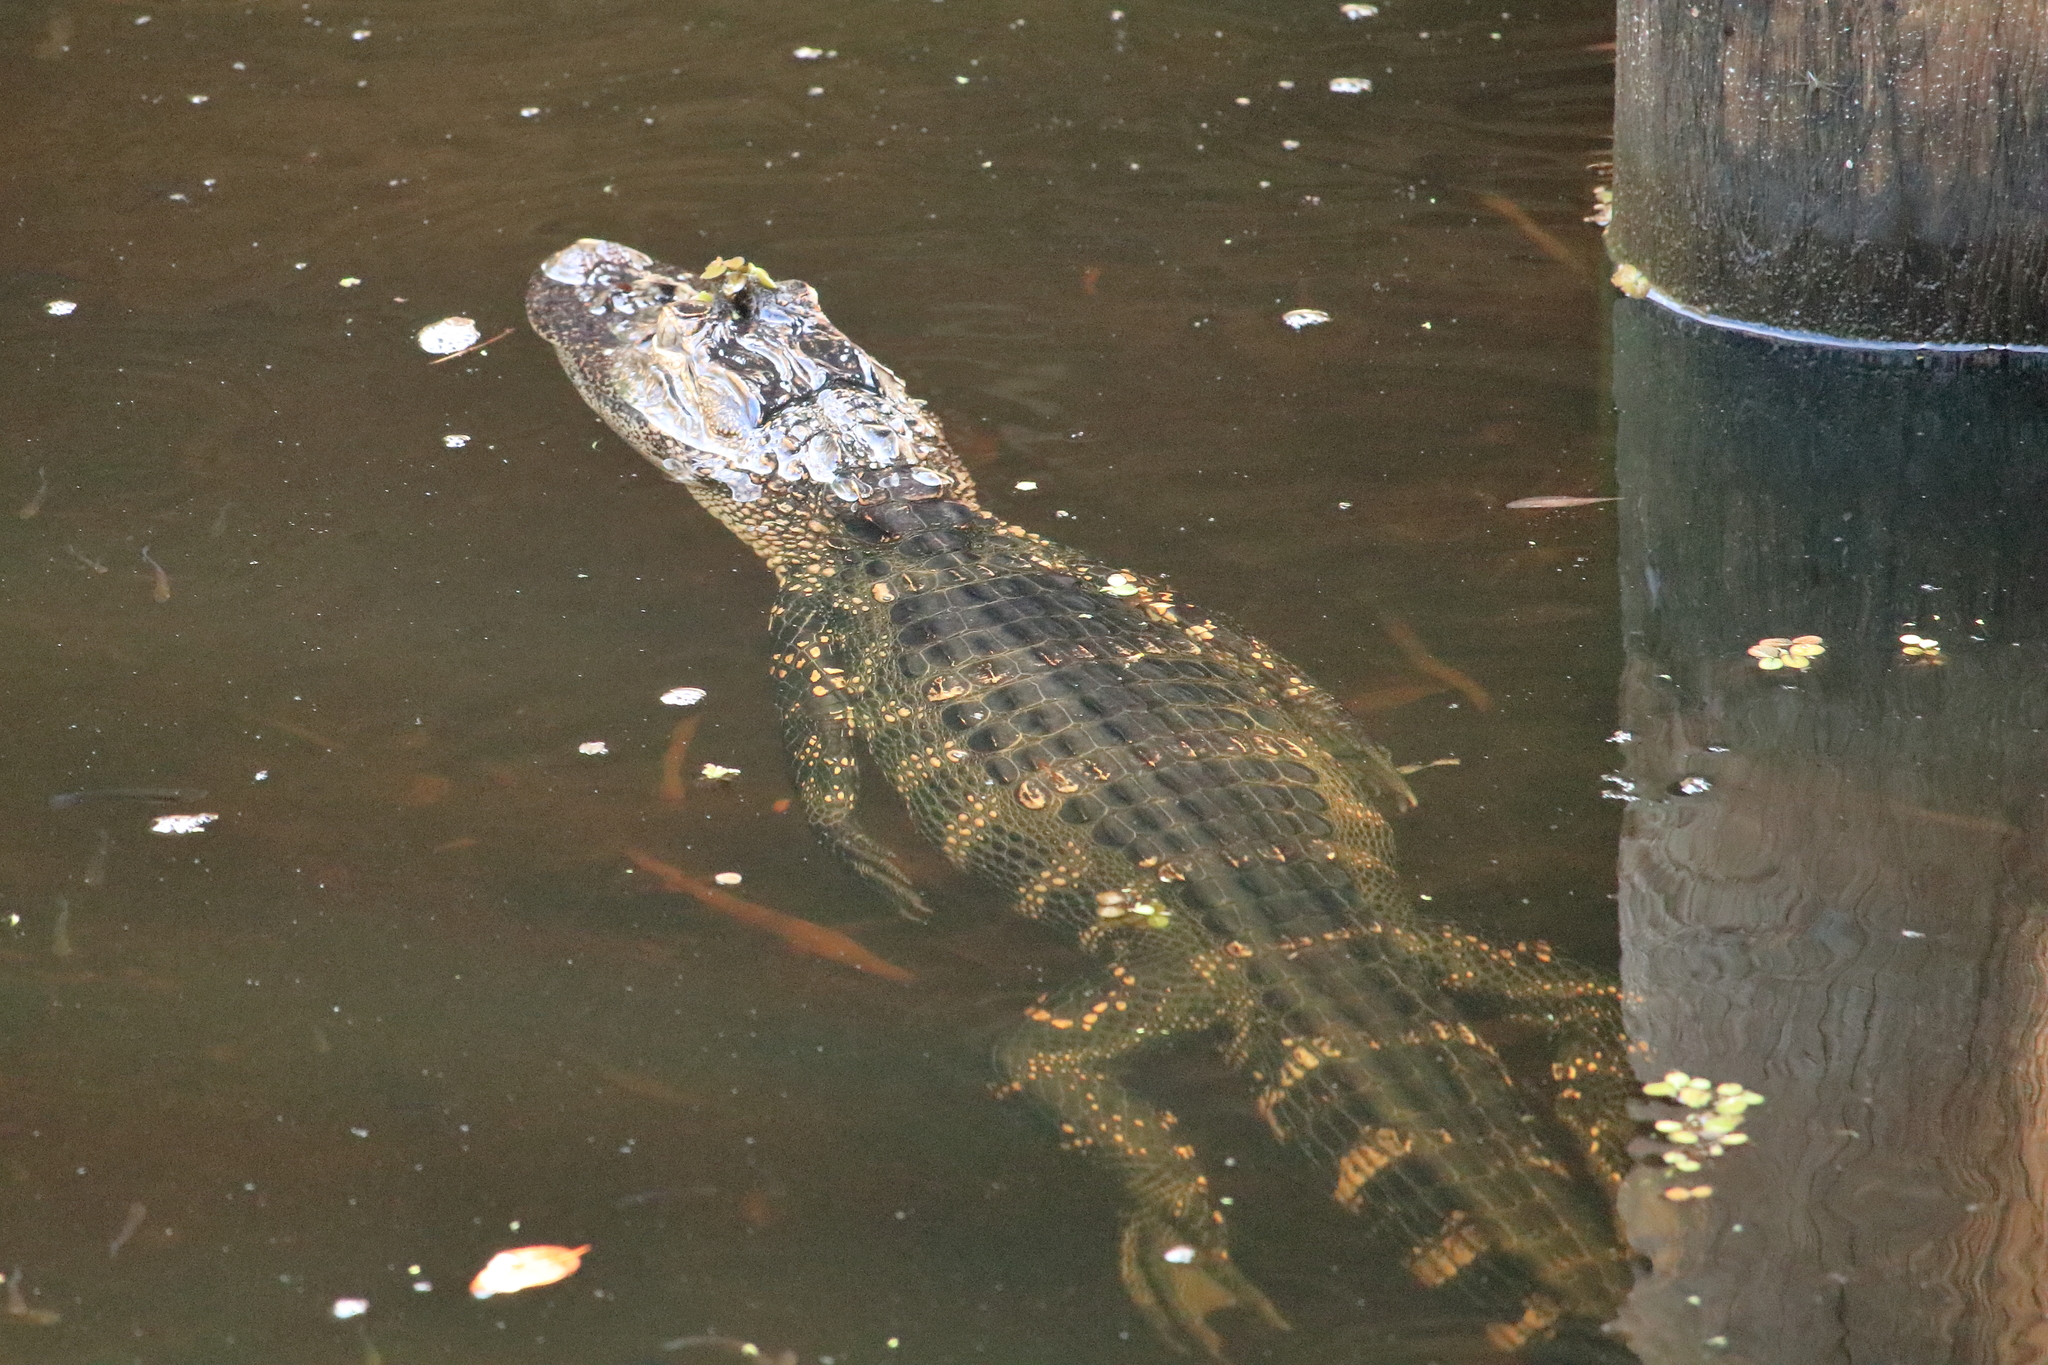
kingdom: Animalia
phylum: Chordata
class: Crocodylia
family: Alligatoridae
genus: Alligator
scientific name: Alligator mississippiensis
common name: American alligator
